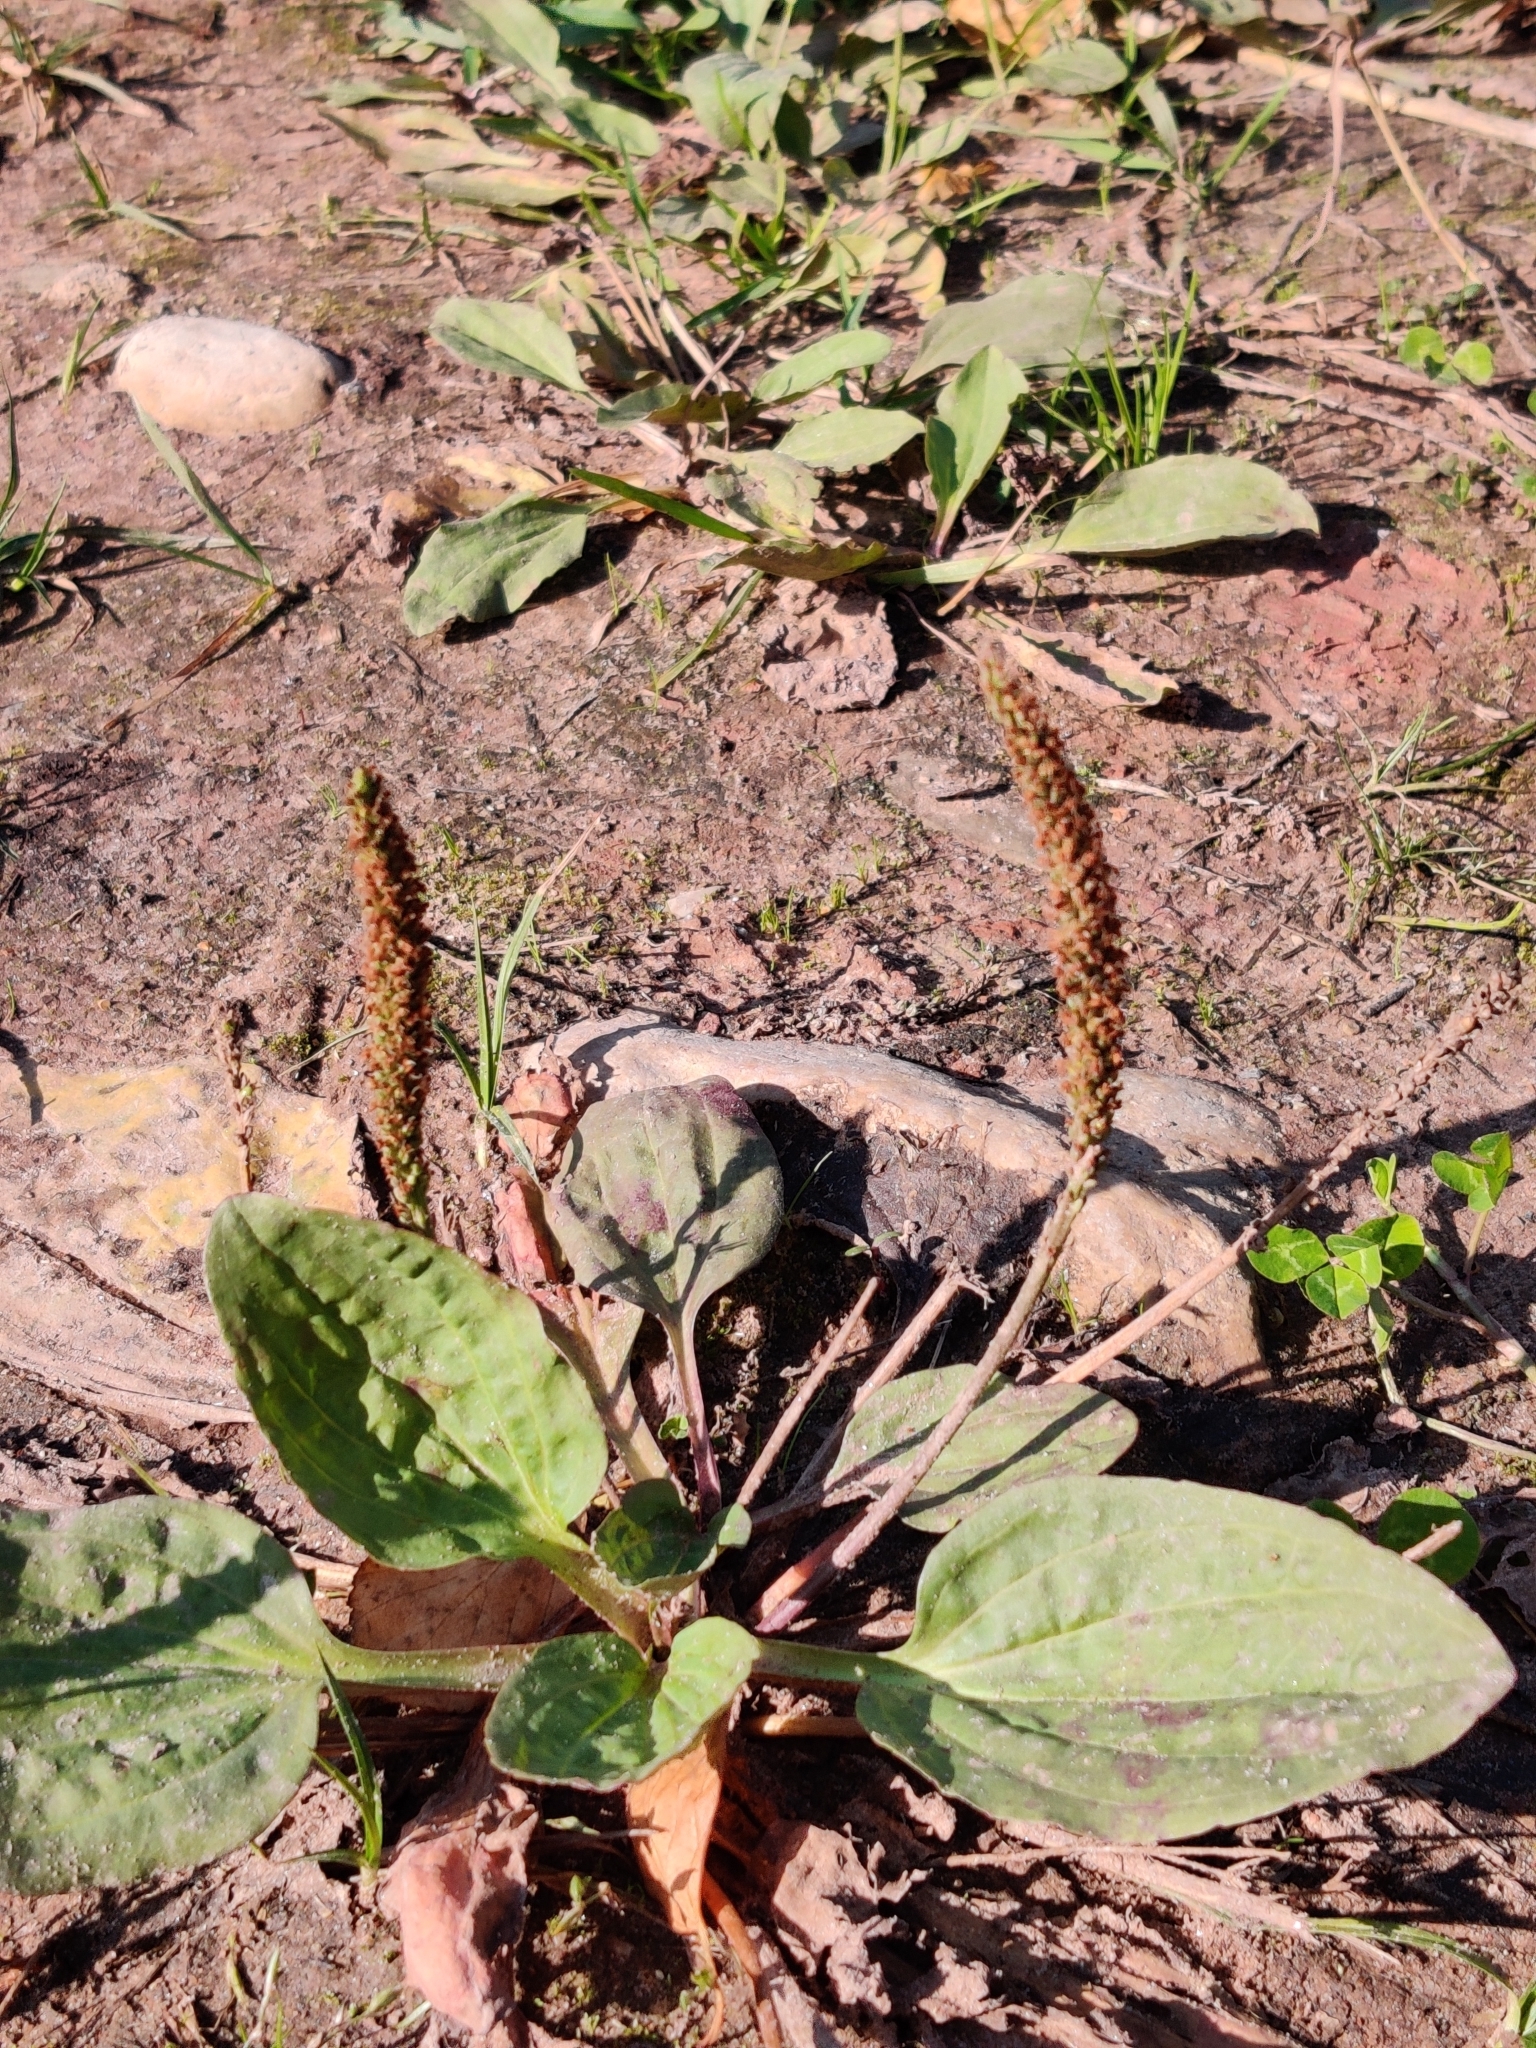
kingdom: Plantae
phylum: Tracheophyta
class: Magnoliopsida
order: Lamiales
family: Plantaginaceae
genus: Plantago
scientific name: Plantago major
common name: Common plantain
